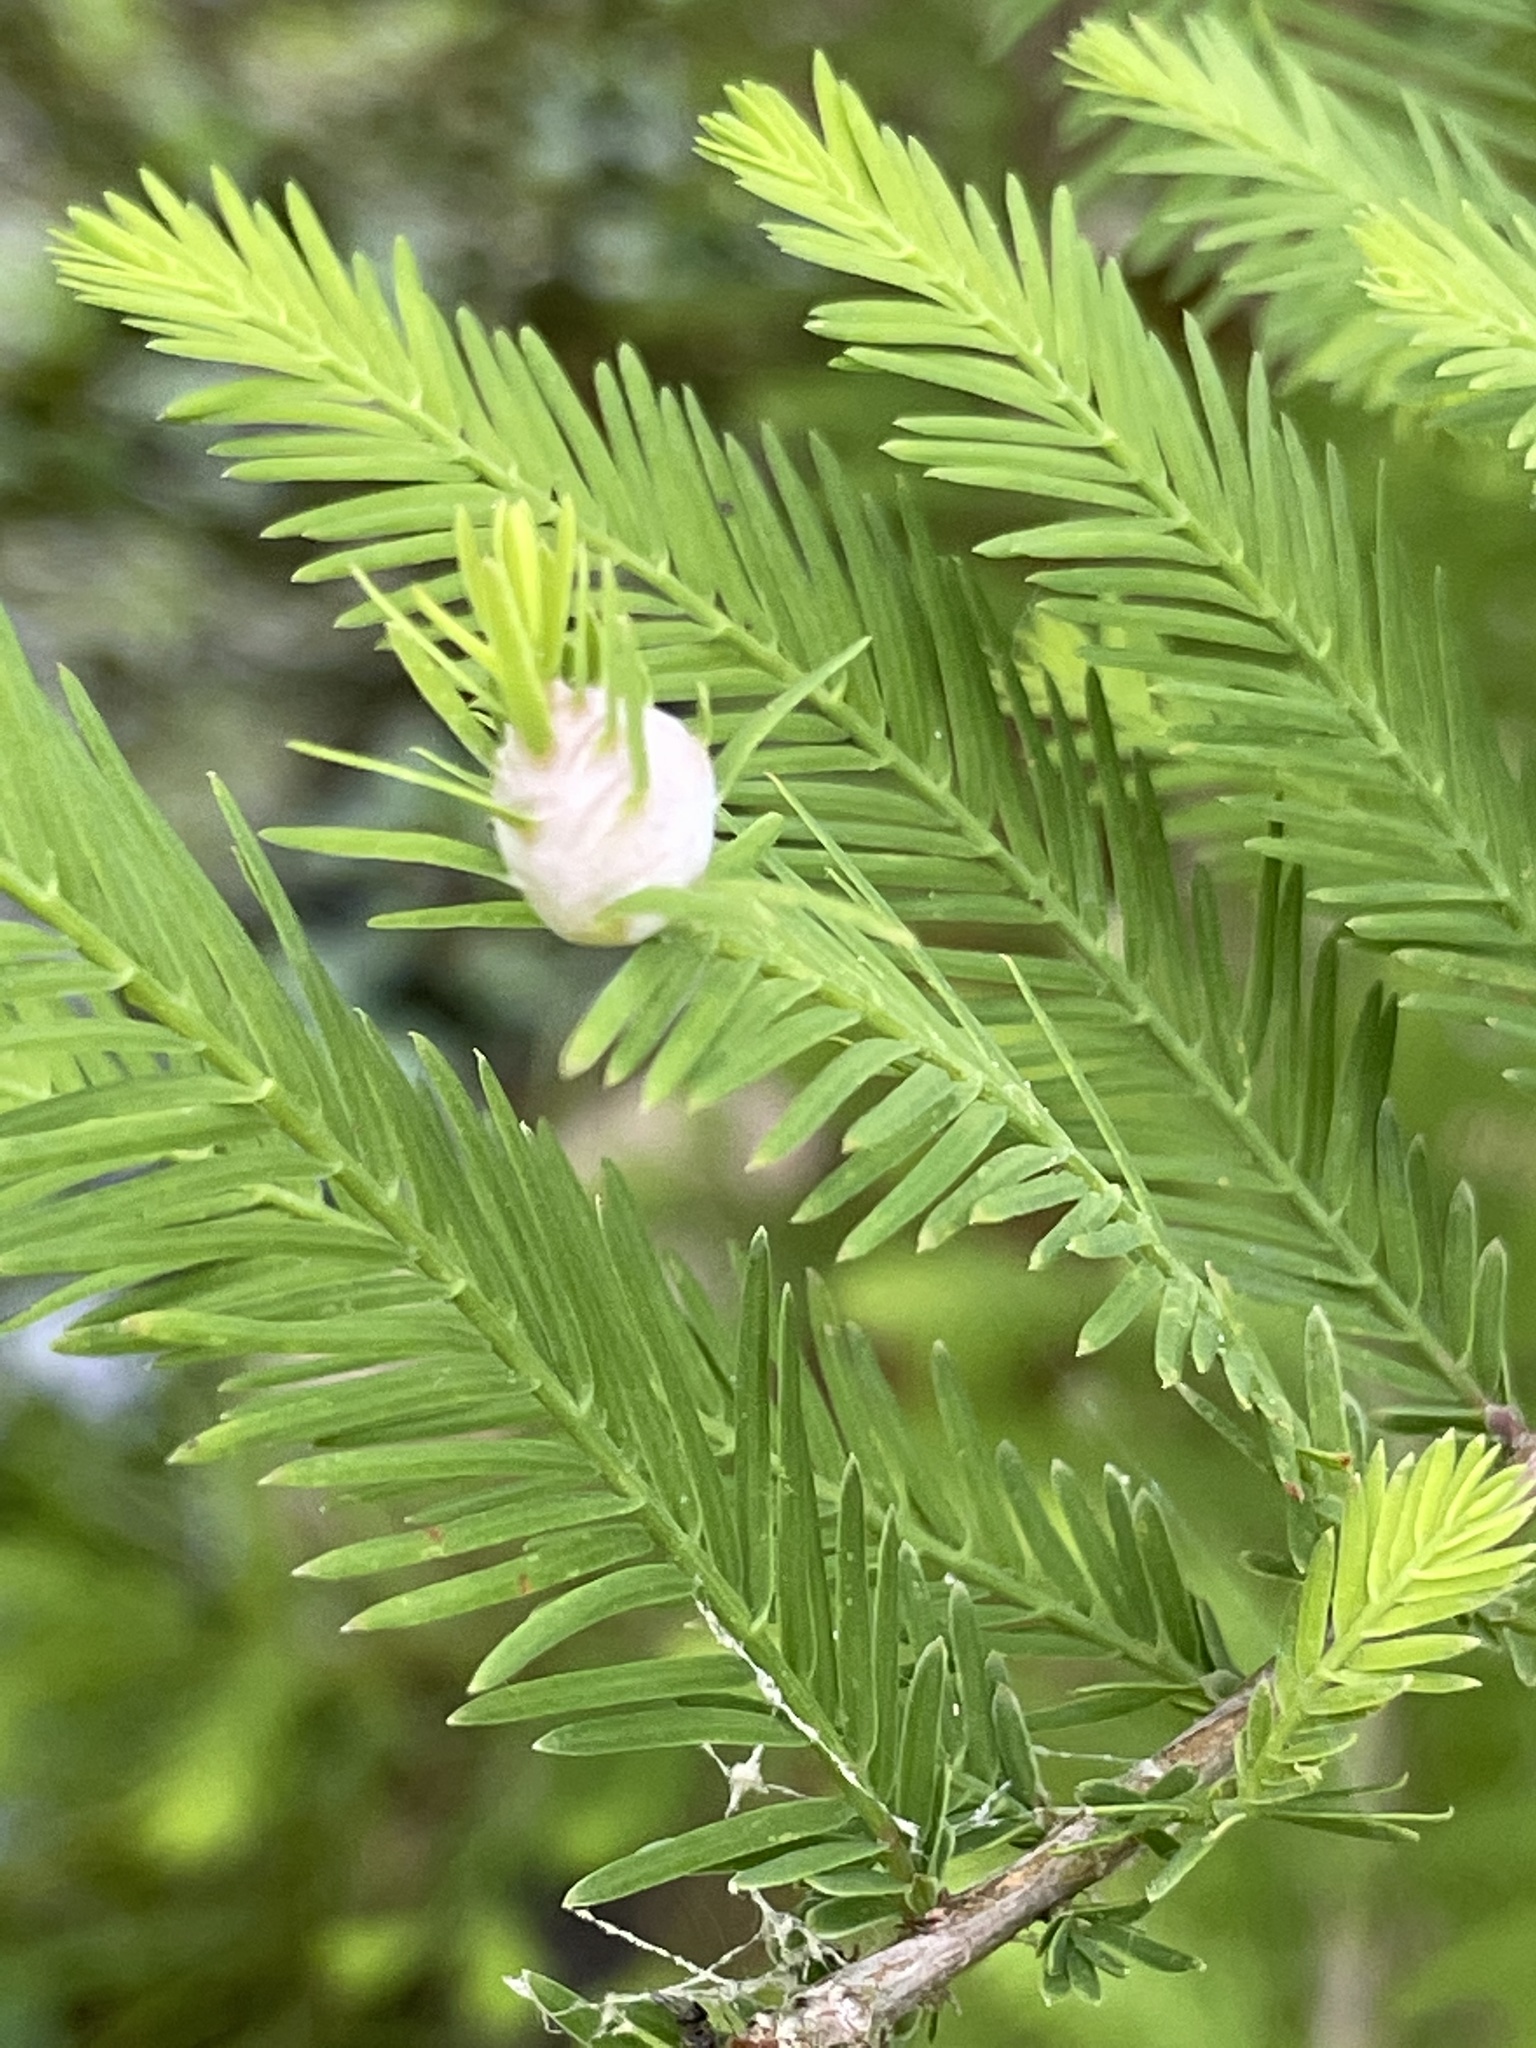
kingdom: Animalia
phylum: Arthropoda
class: Insecta
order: Diptera
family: Cecidomyiidae
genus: Taxodiomyia
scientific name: Taxodiomyia cupressiananassa
